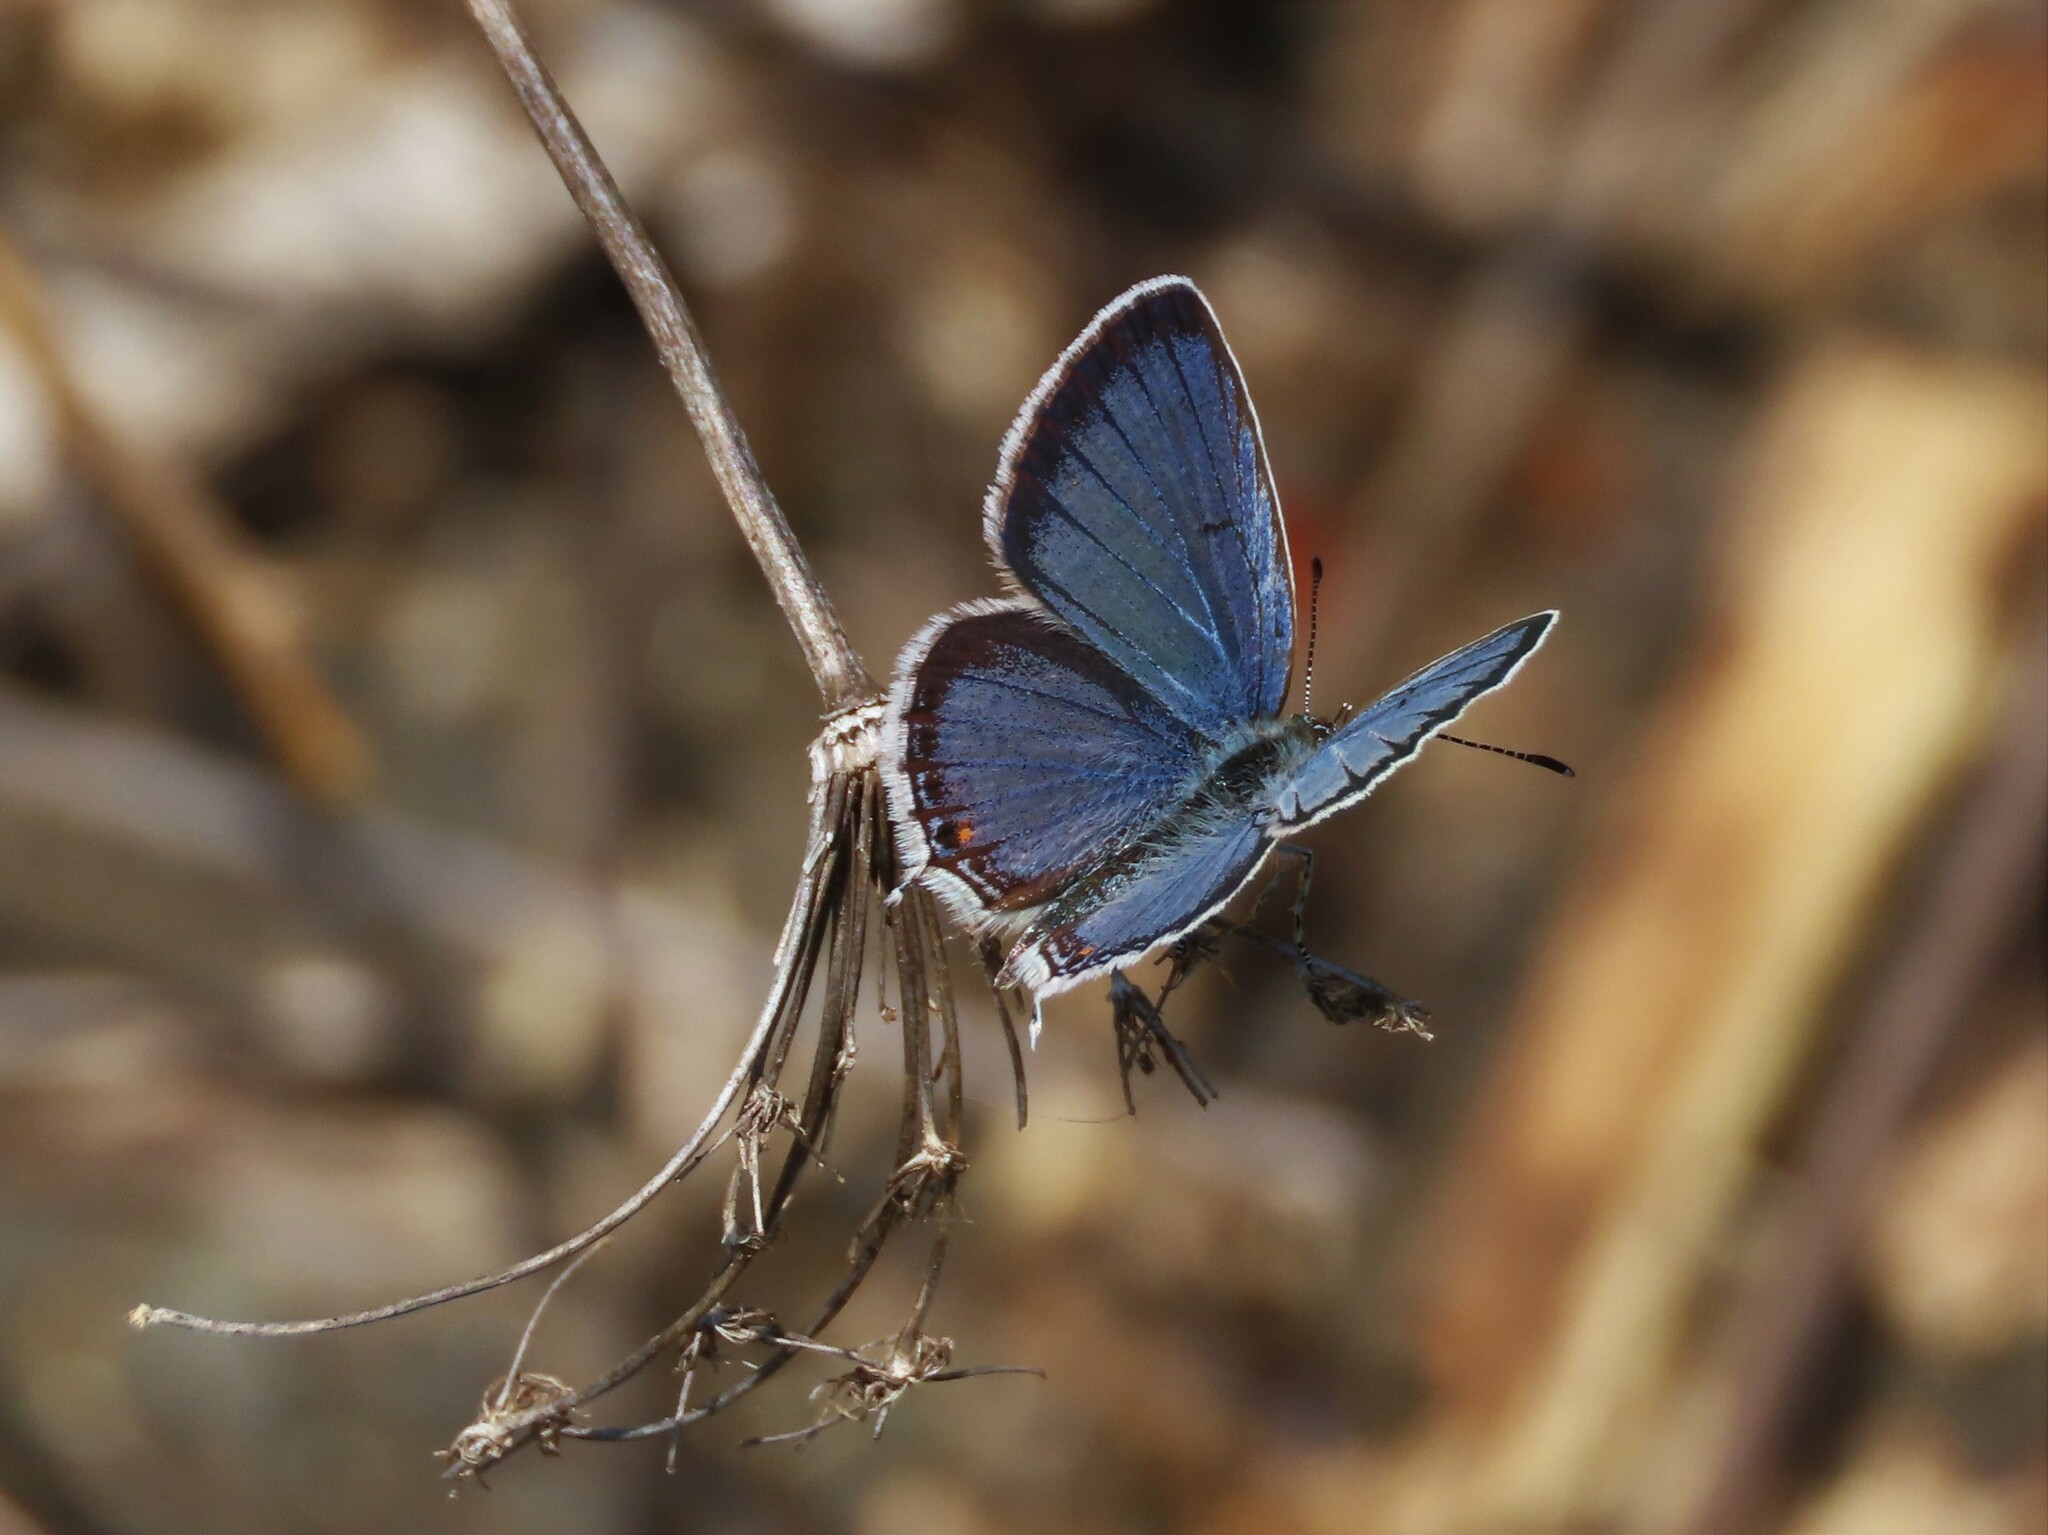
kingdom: Animalia
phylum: Arthropoda
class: Insecta
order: Lepidoptera
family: Lycaenidae
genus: Elkalyce
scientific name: Elkalyce comyntas
